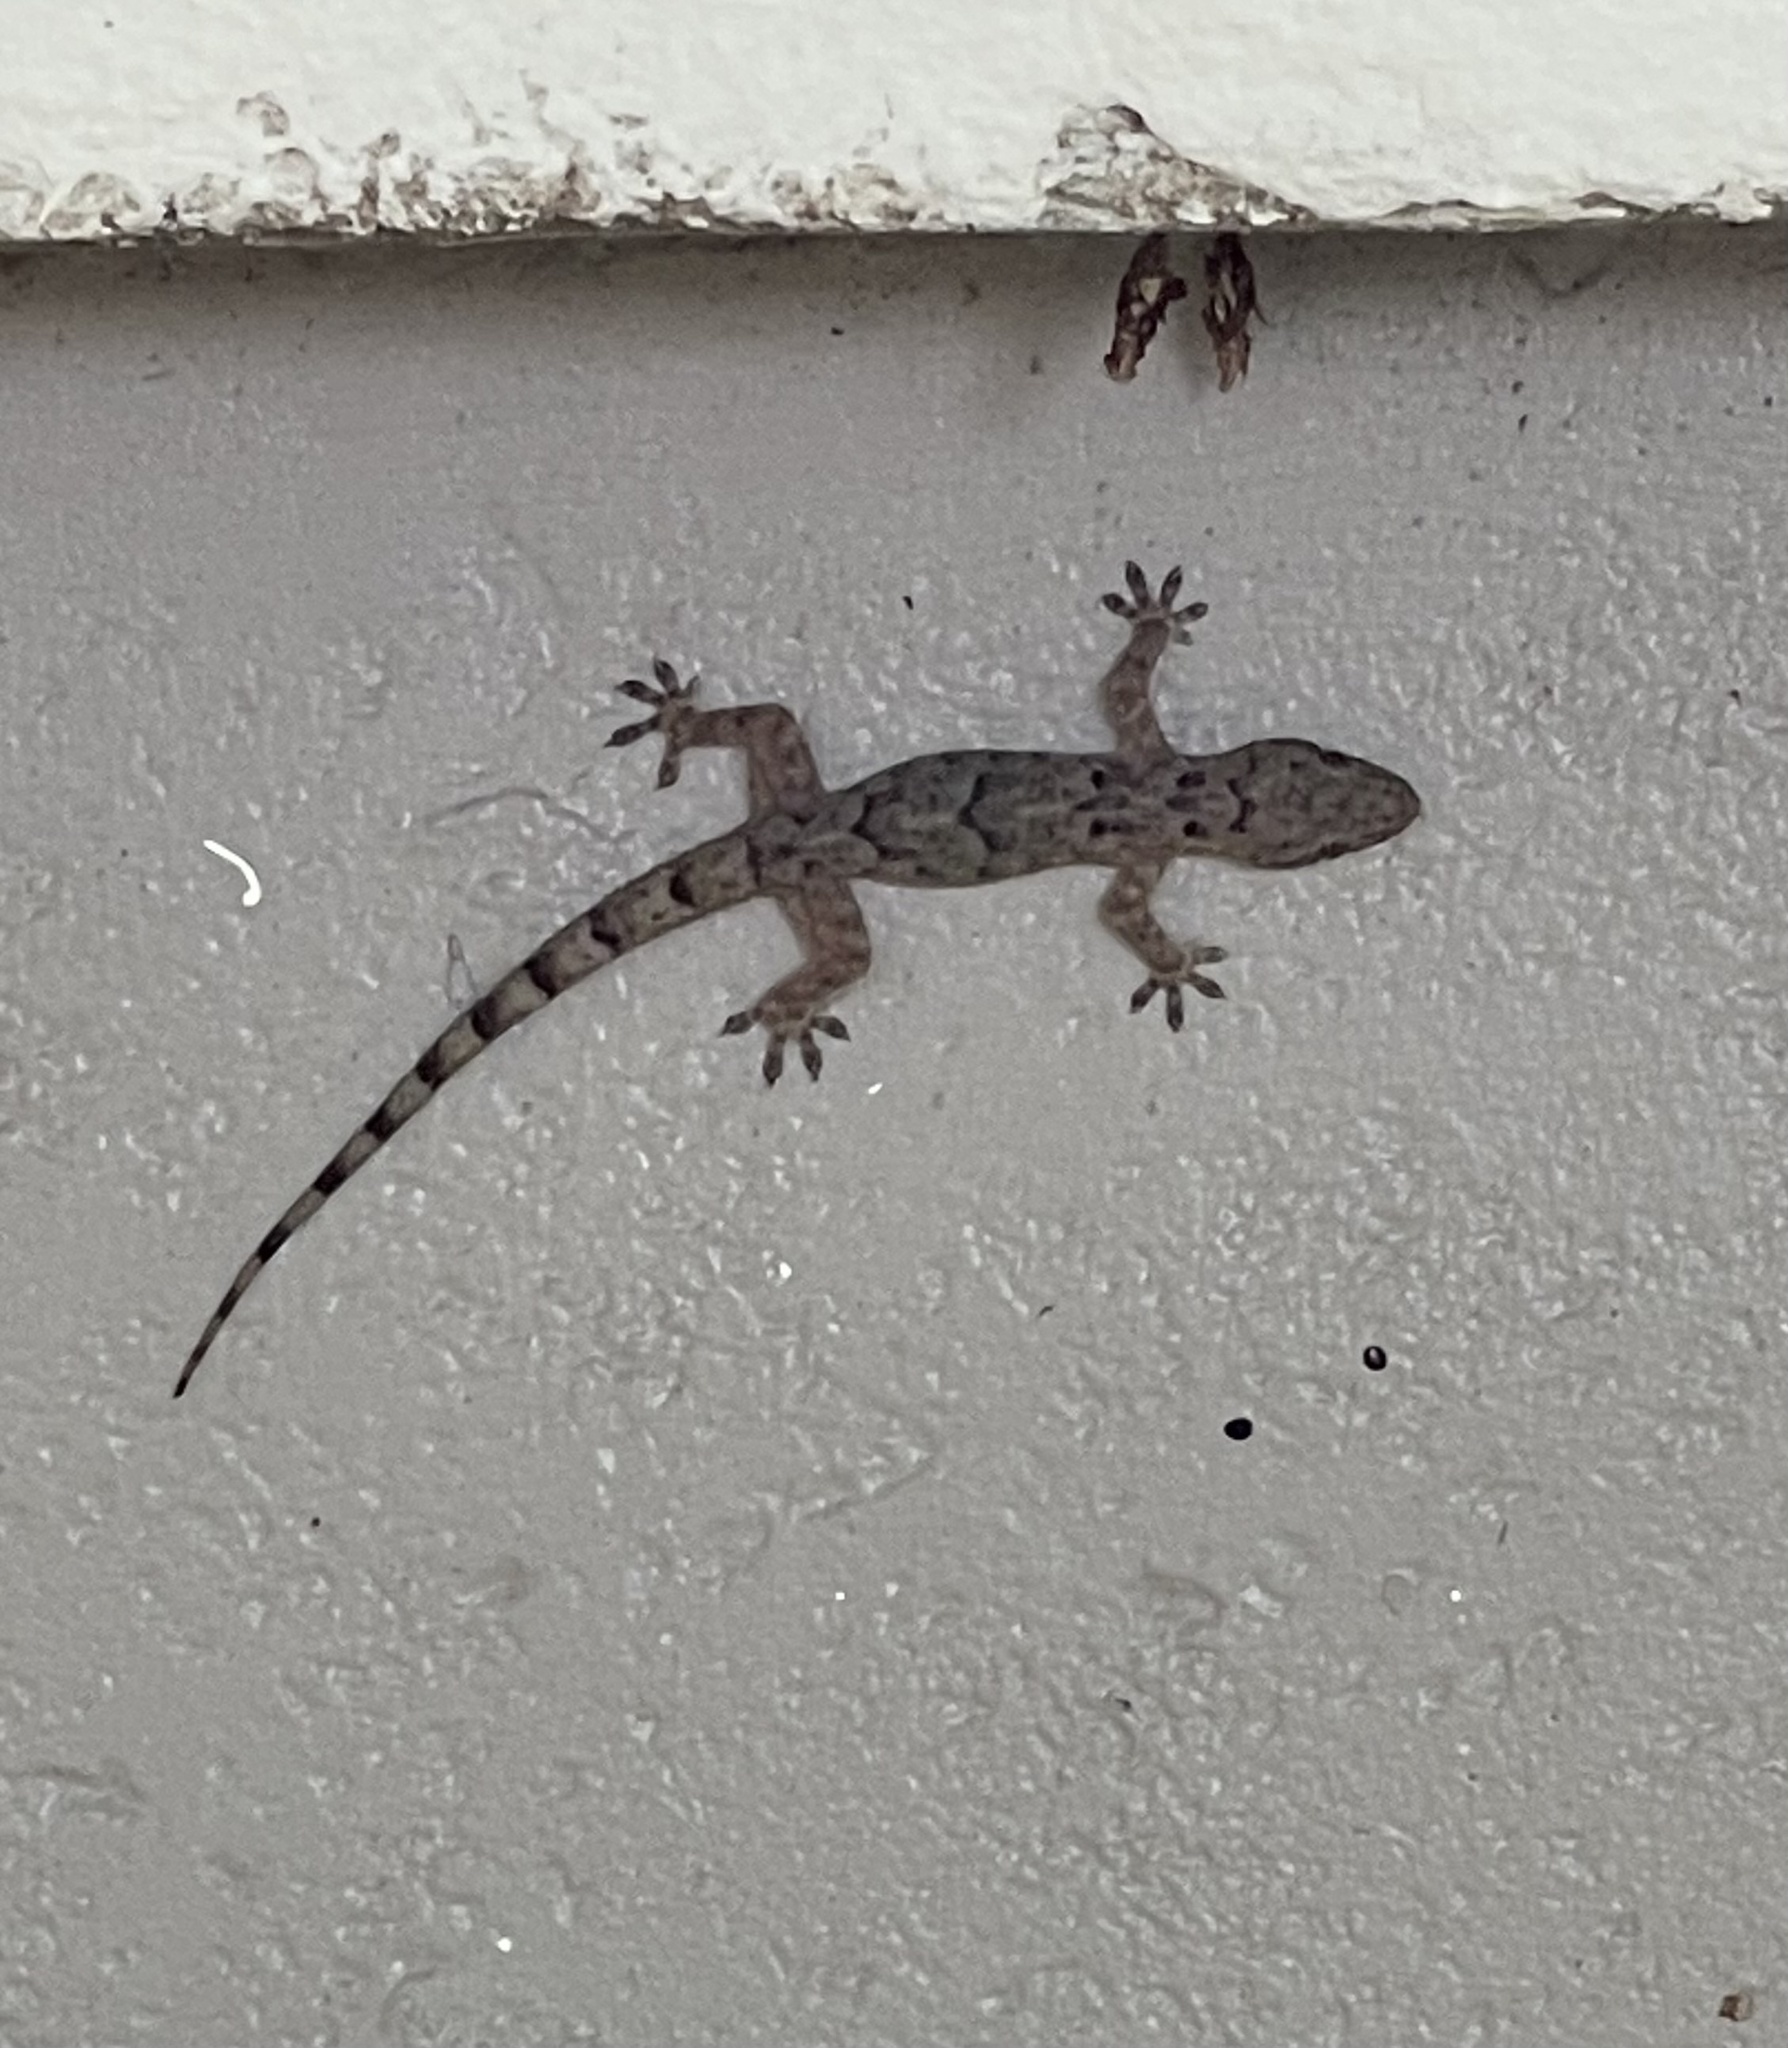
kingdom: Animalia
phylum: Chordata
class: Squamata
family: Gekkonidae
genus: Hemidactylus
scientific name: Hemidactylus mabouia
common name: House gecko
